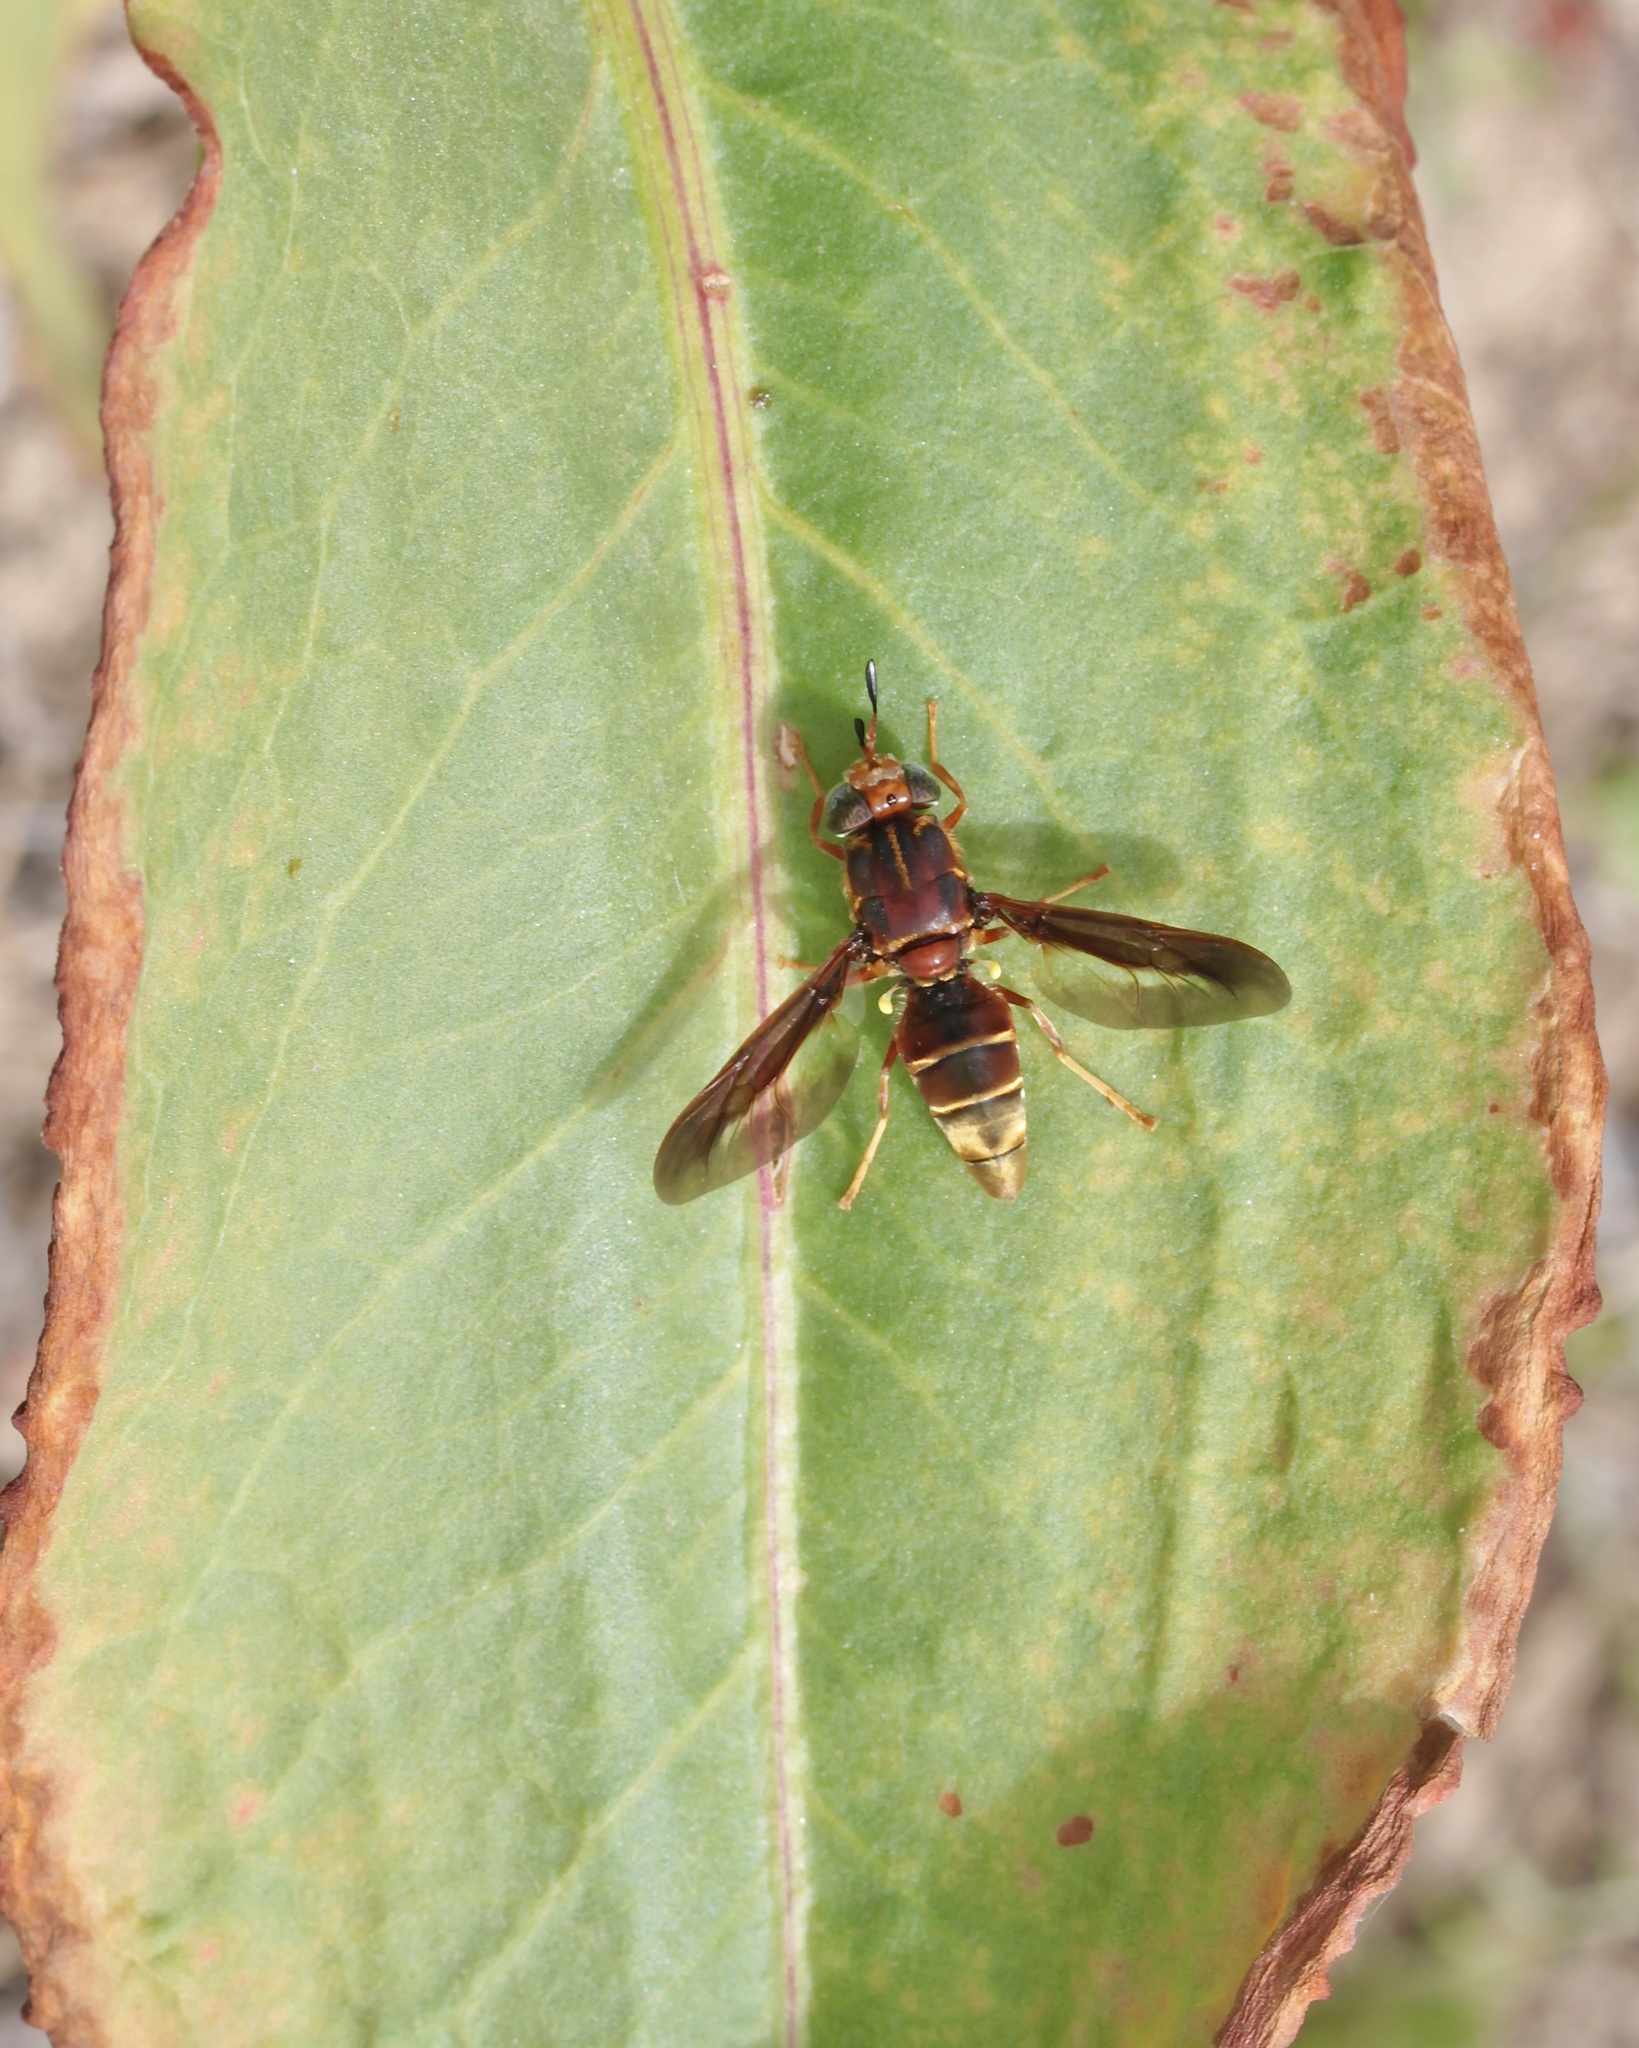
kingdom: Animalia
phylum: Arthropoda
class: Insecta
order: Diptera
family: Stratiomyidae
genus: Hermetia
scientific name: Hermetia comstocki
